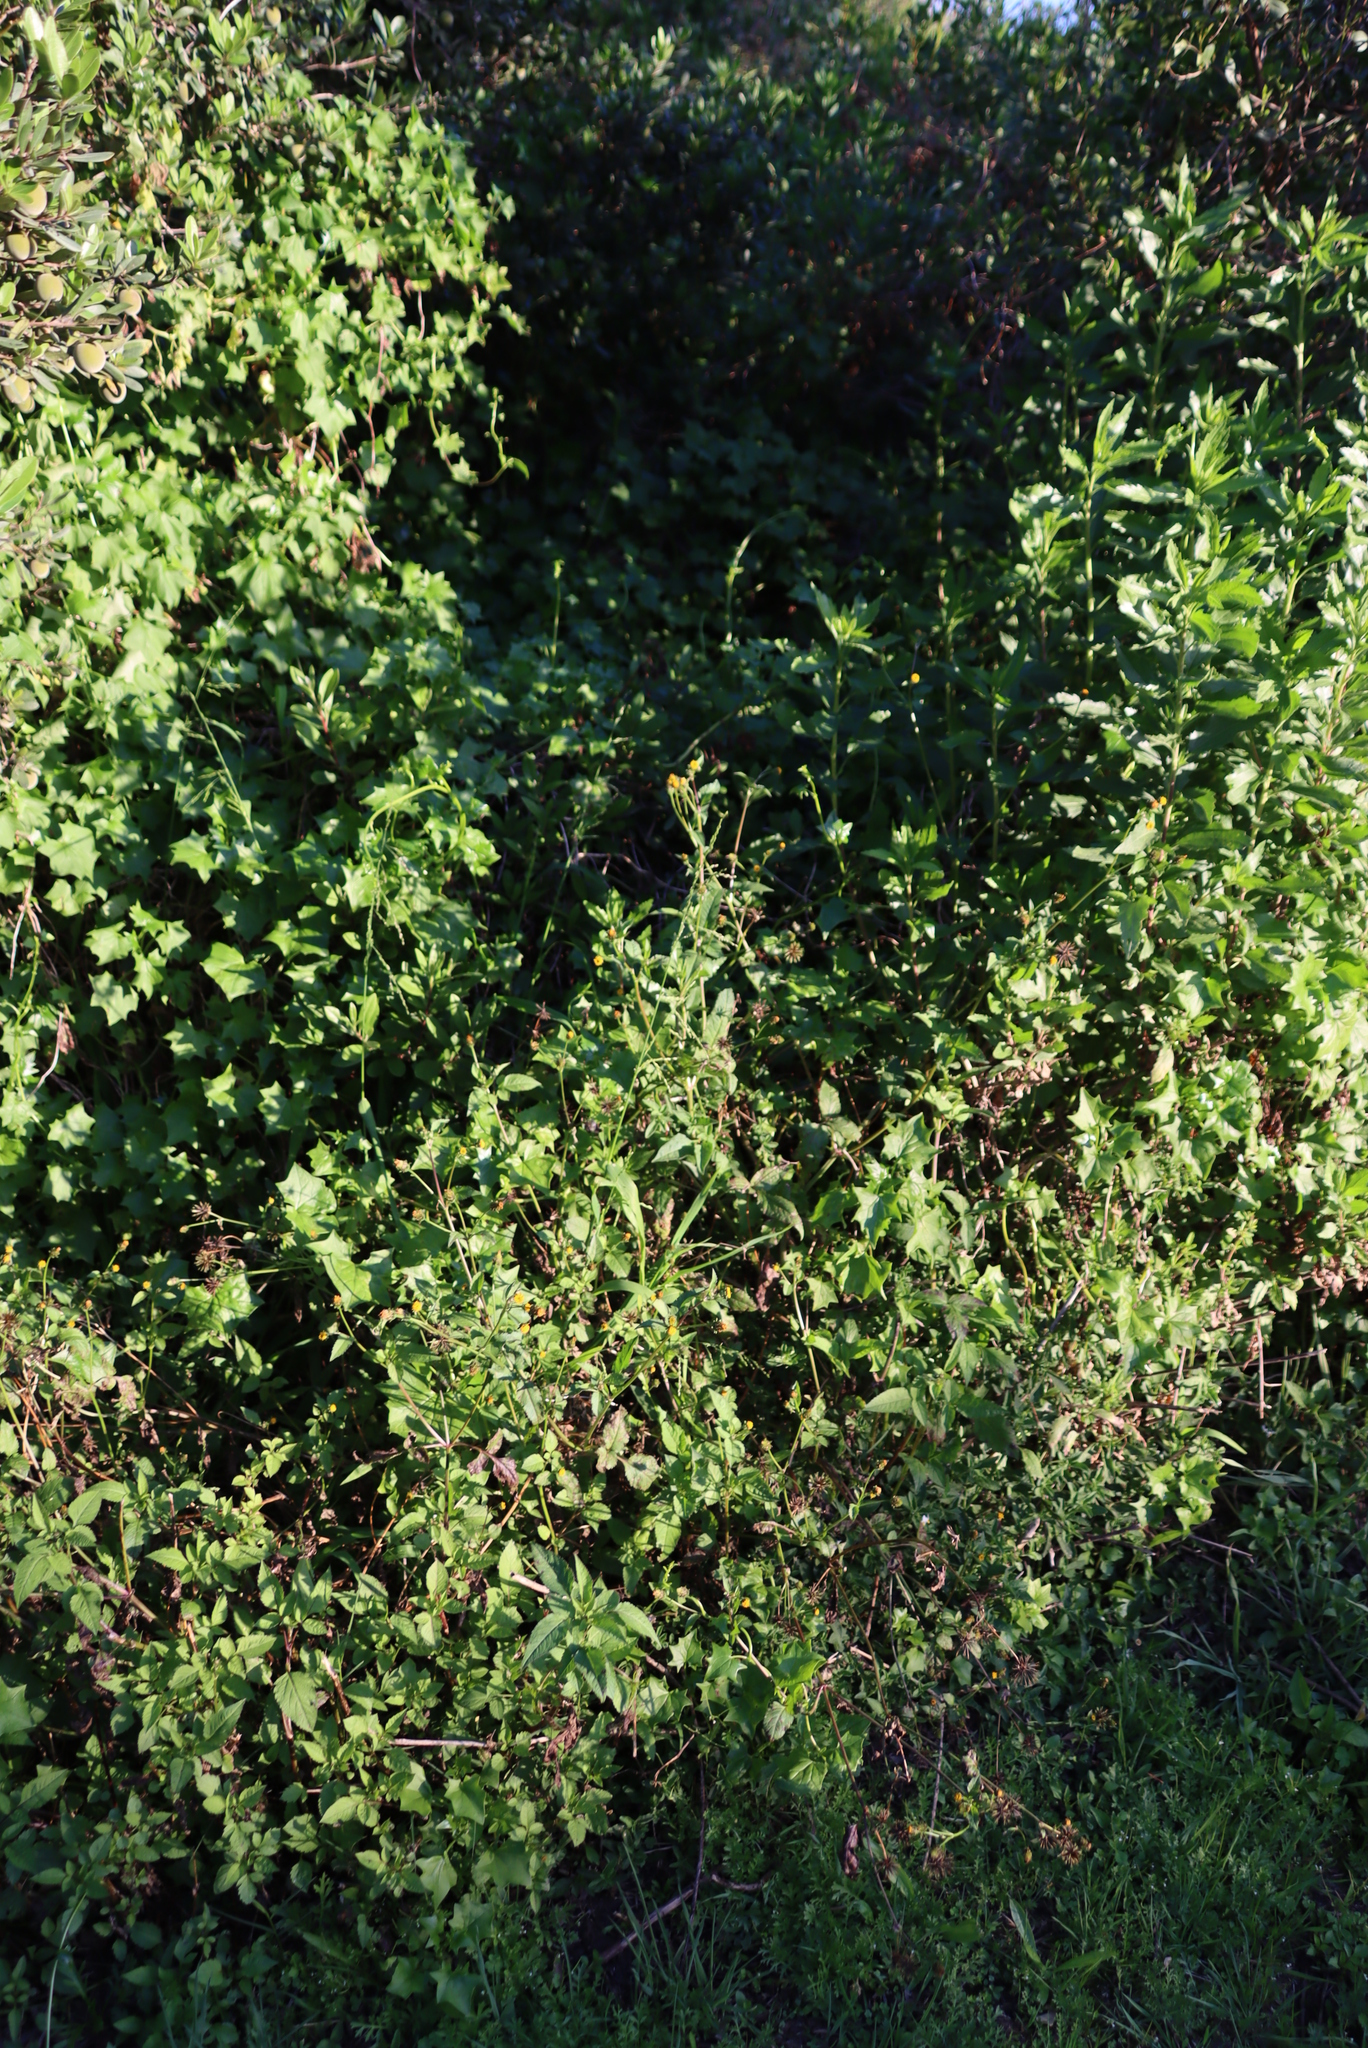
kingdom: Plantae
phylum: Tracheophyta
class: Magnoliopsida
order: Asterales
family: Asteraceae
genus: Bidens
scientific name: Bidens pilosa
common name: Black-jack
